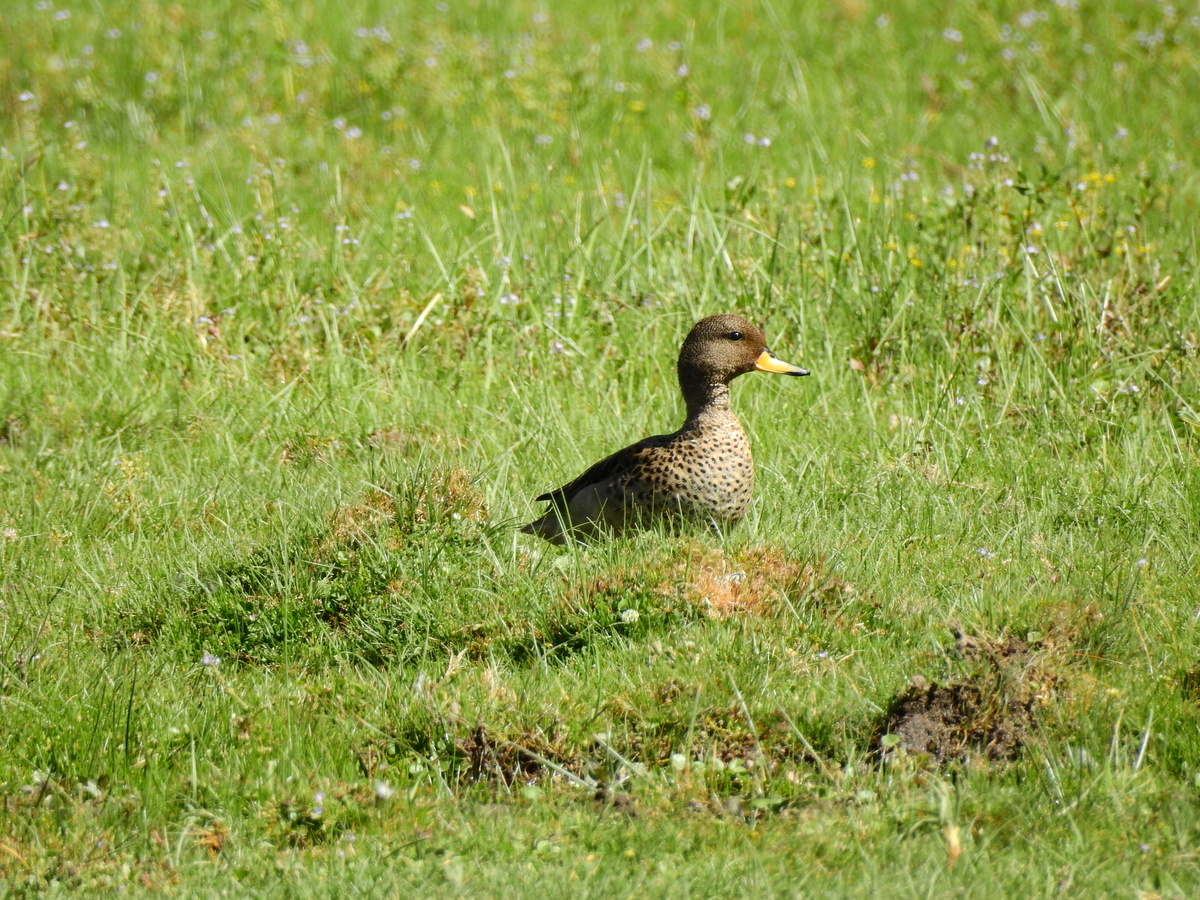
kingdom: Animalia
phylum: Chordata
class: Aves
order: Anseriformes
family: Anatidae
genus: Anas
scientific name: Anas flavirostris
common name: Yellow-billed teal
